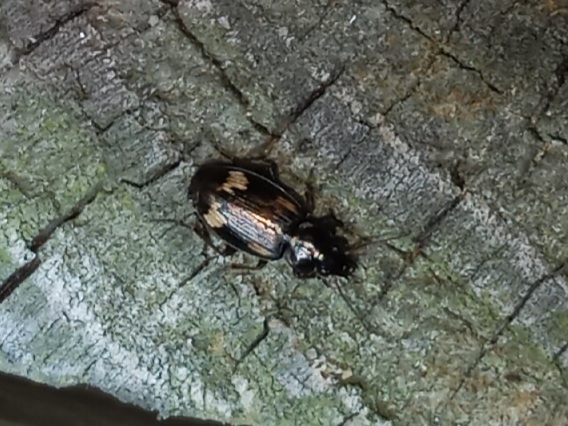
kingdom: Animalia
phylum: Arthropoda
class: Insecta
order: Coleoptera
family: Carabidae
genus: Tetragonoderus
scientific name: Tetragonoderus intersectus
